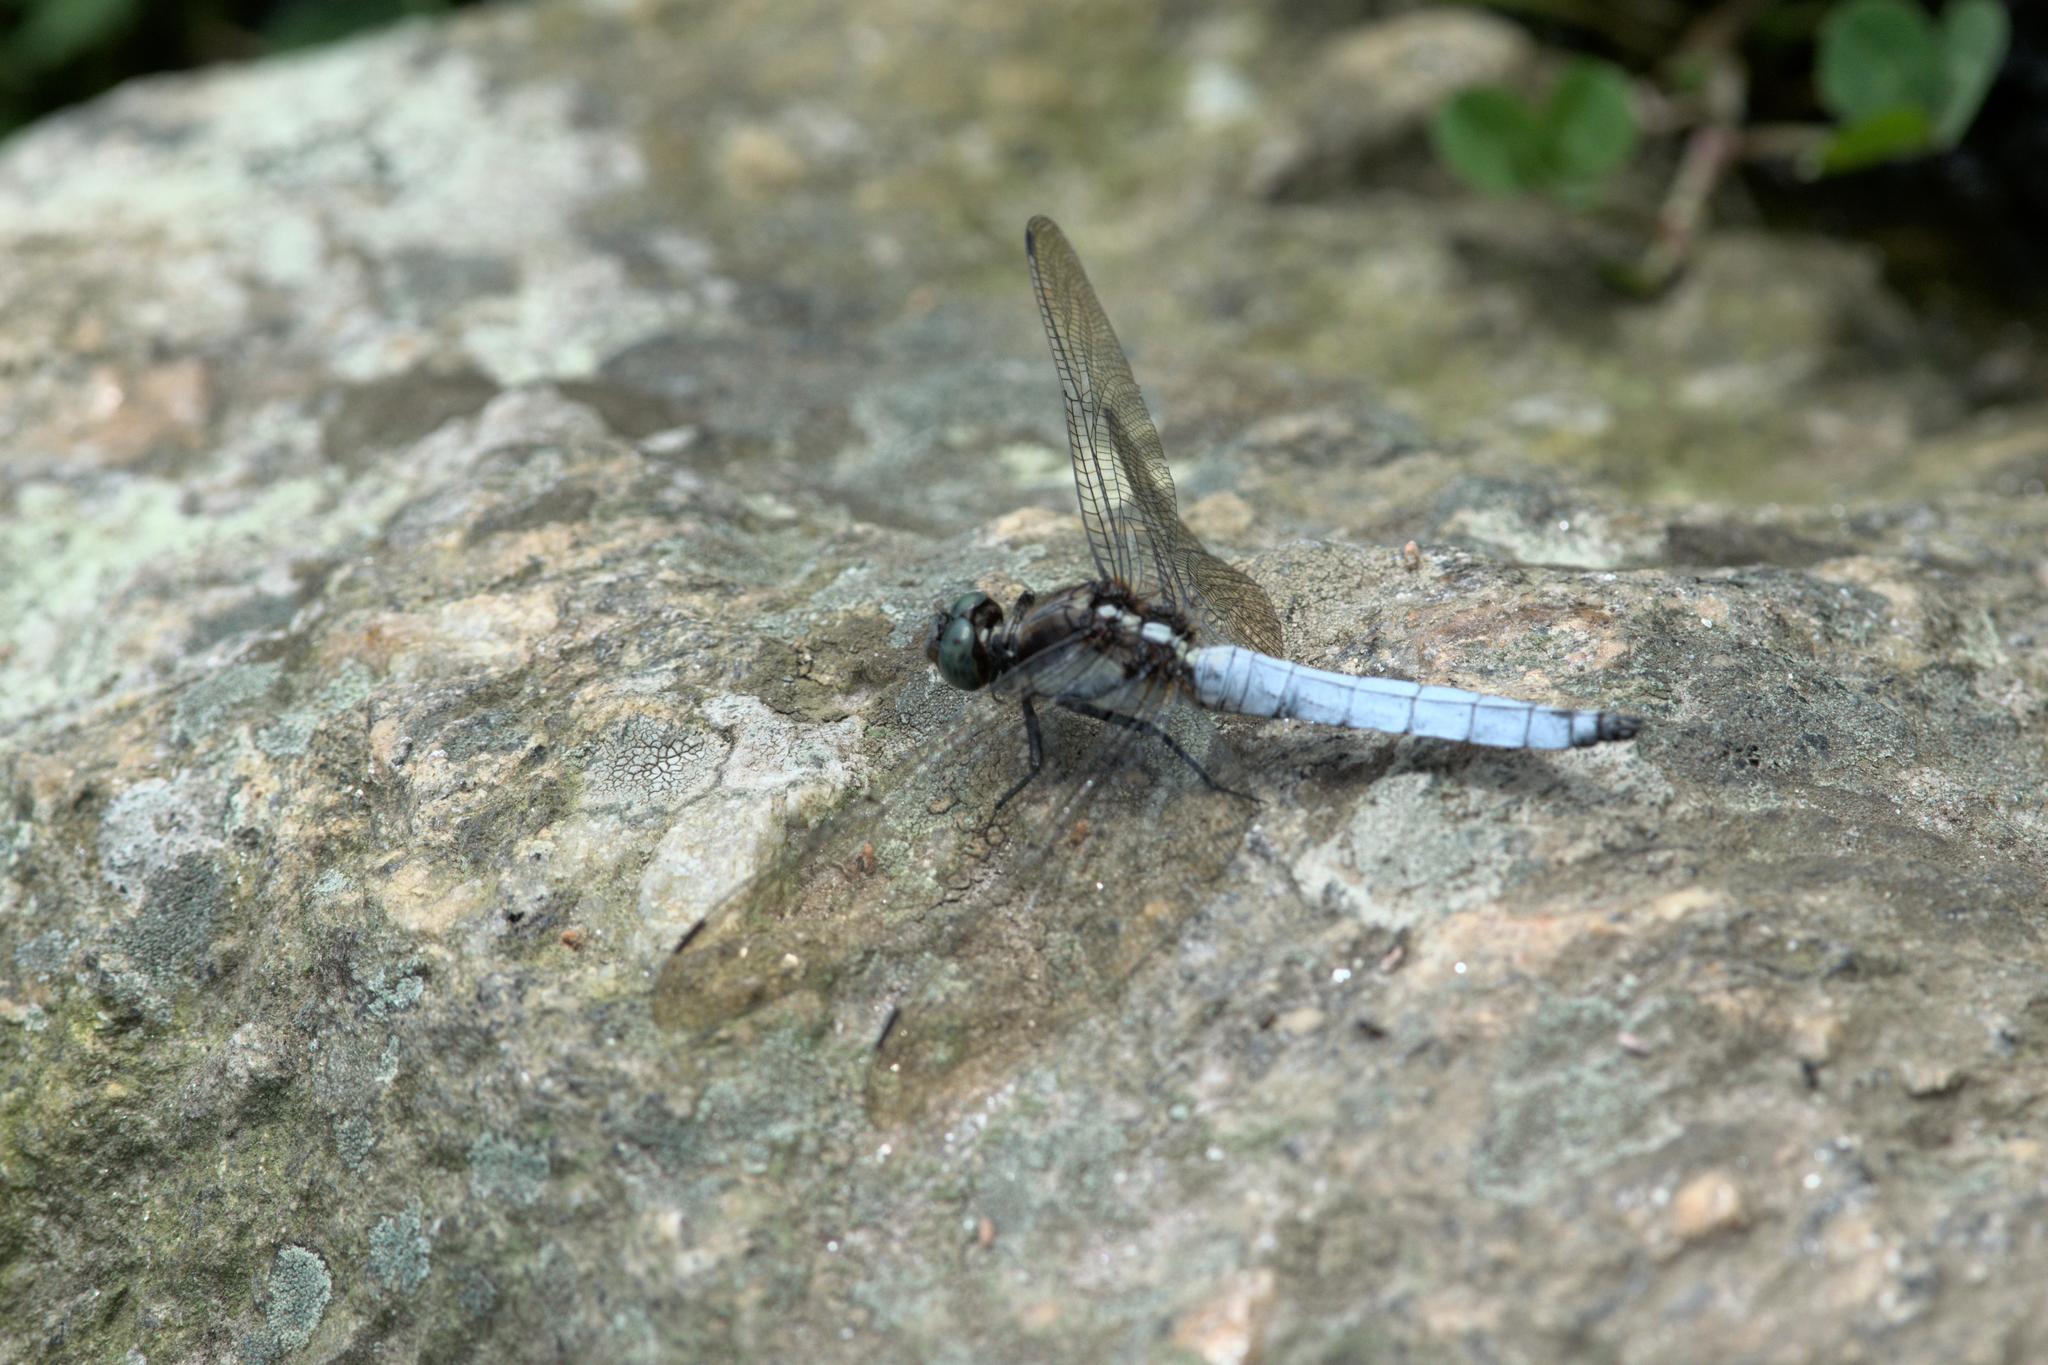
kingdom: Animalia
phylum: Arthropoda
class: Insecta
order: Odonata
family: Libellulidae
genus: Orthetrum
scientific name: Orthetrum internum
